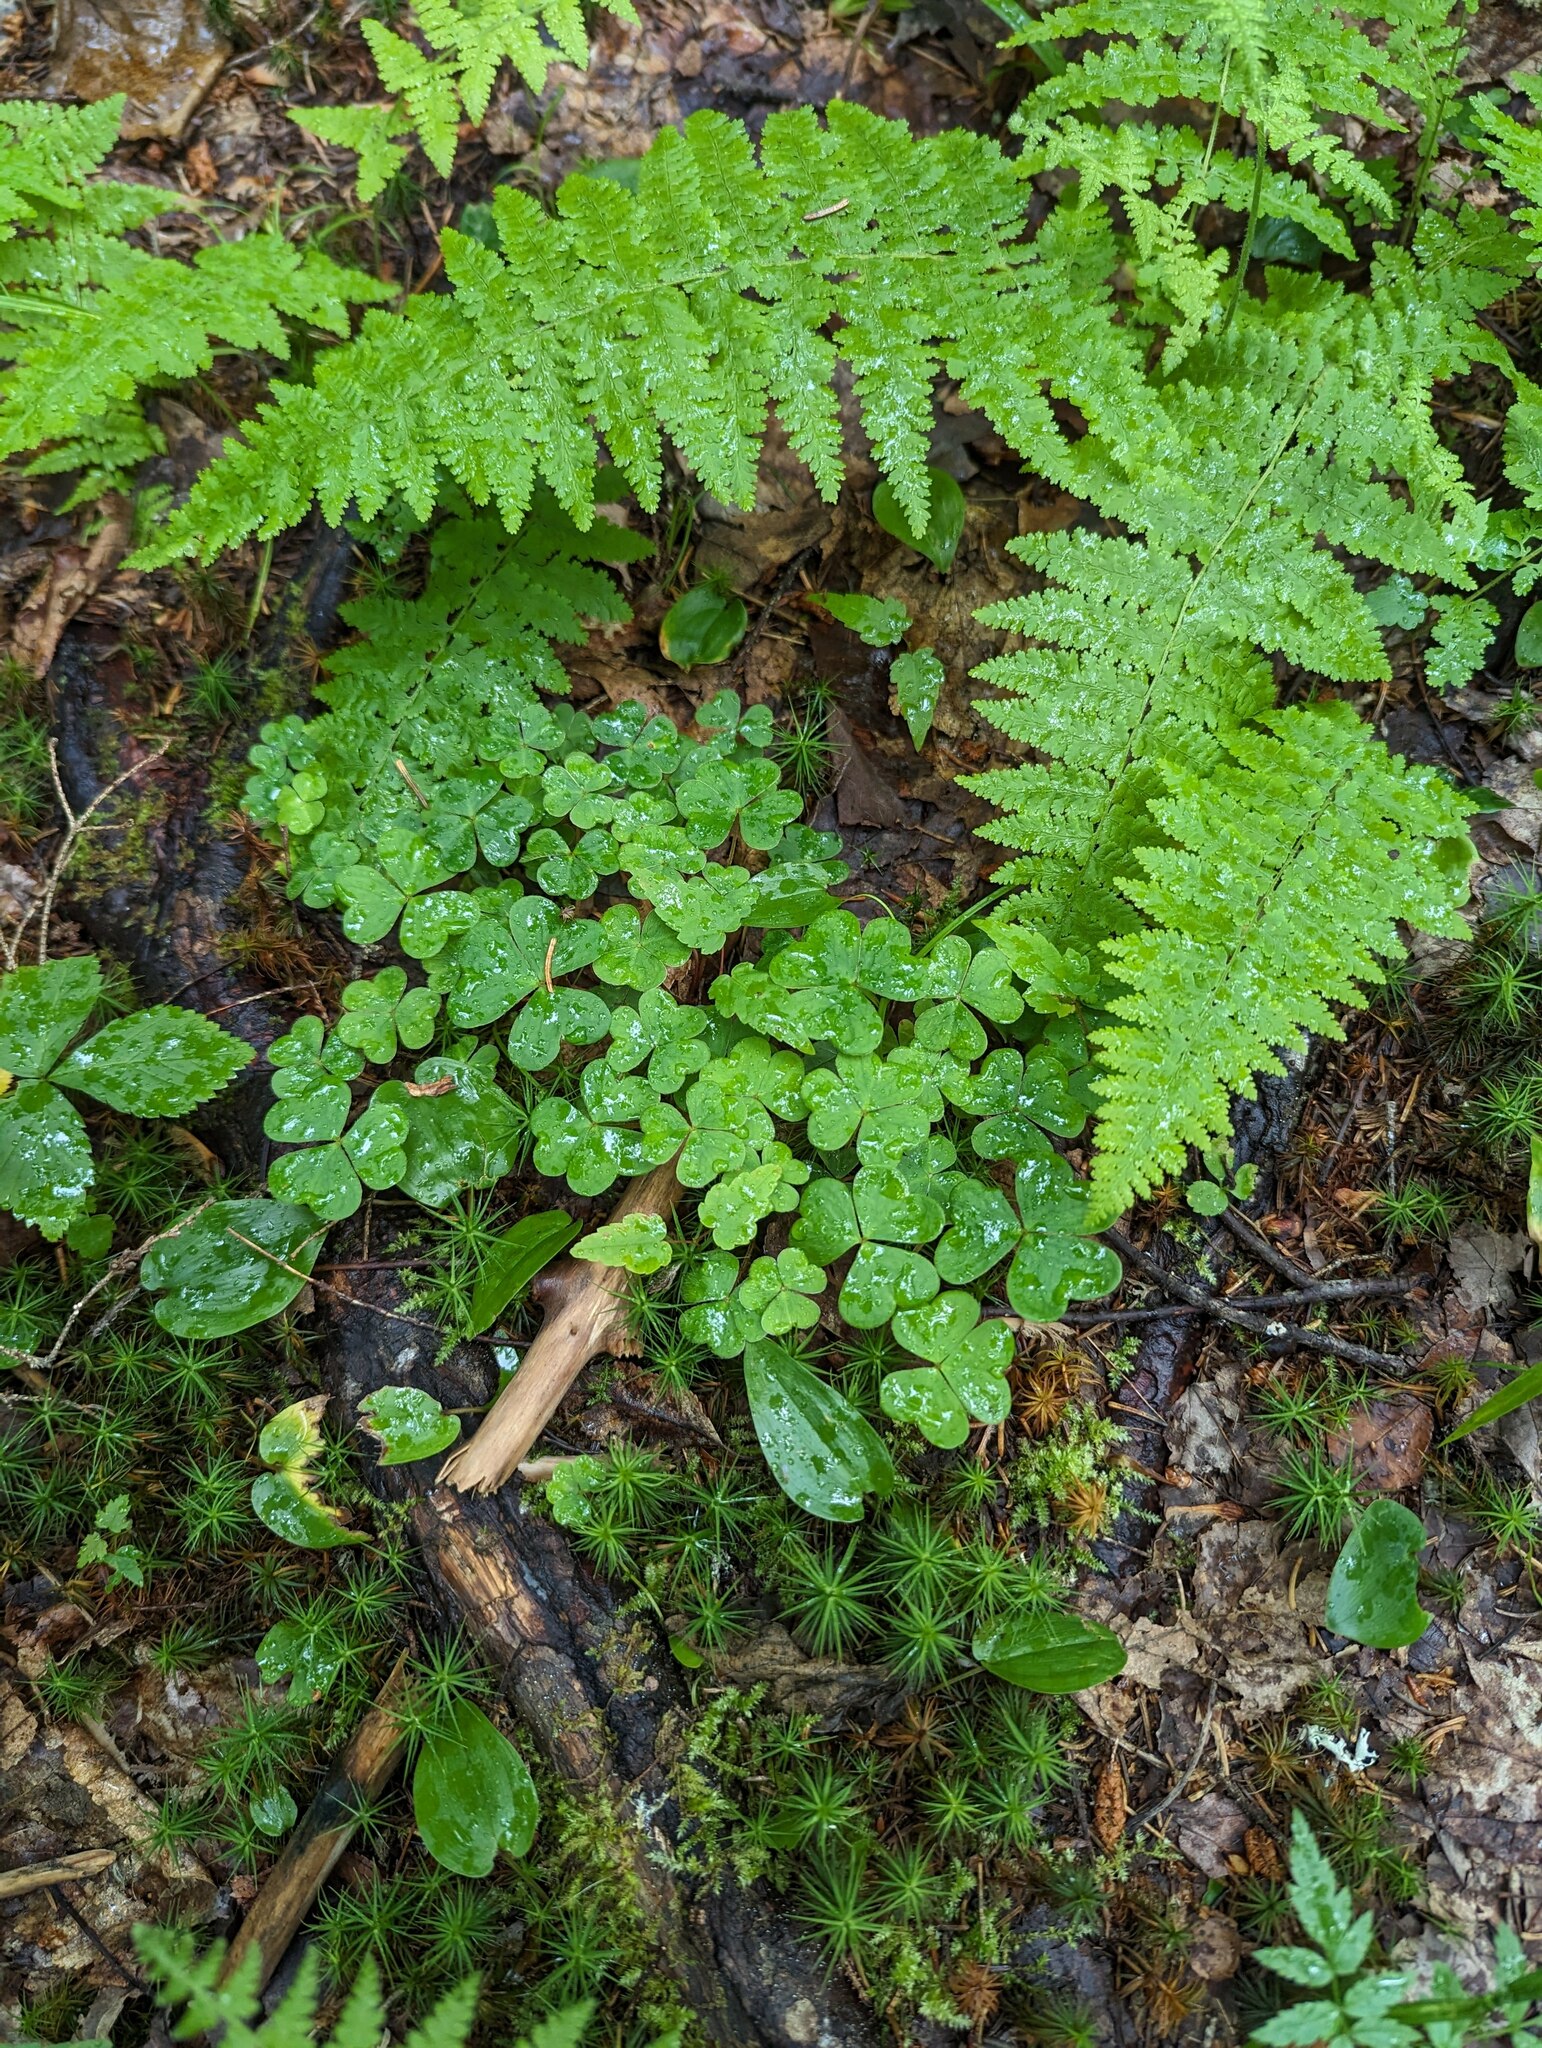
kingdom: Plantae
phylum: Tracheophyta
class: Magnoliopsida
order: Oxalidales
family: Oxalidaceae
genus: Oxalis
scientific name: Oxalis montana
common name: American wood-sorrel
